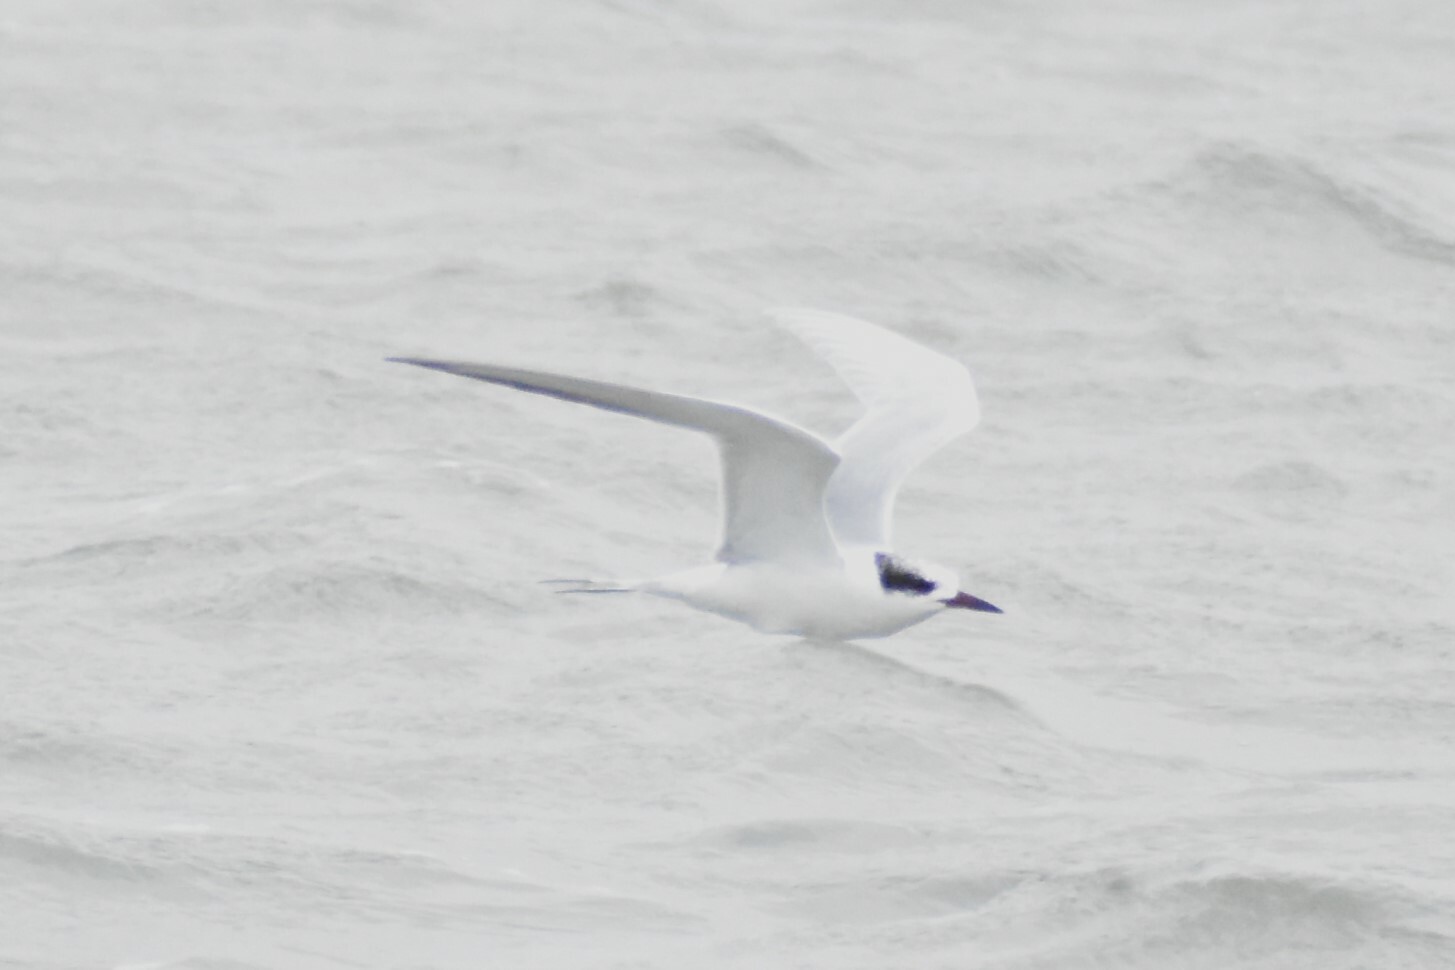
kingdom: Animalia
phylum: Chordata
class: Aves
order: Charadriiformes
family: Laridae
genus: Sterna
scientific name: Sterna forsteri
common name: Forster's tern
